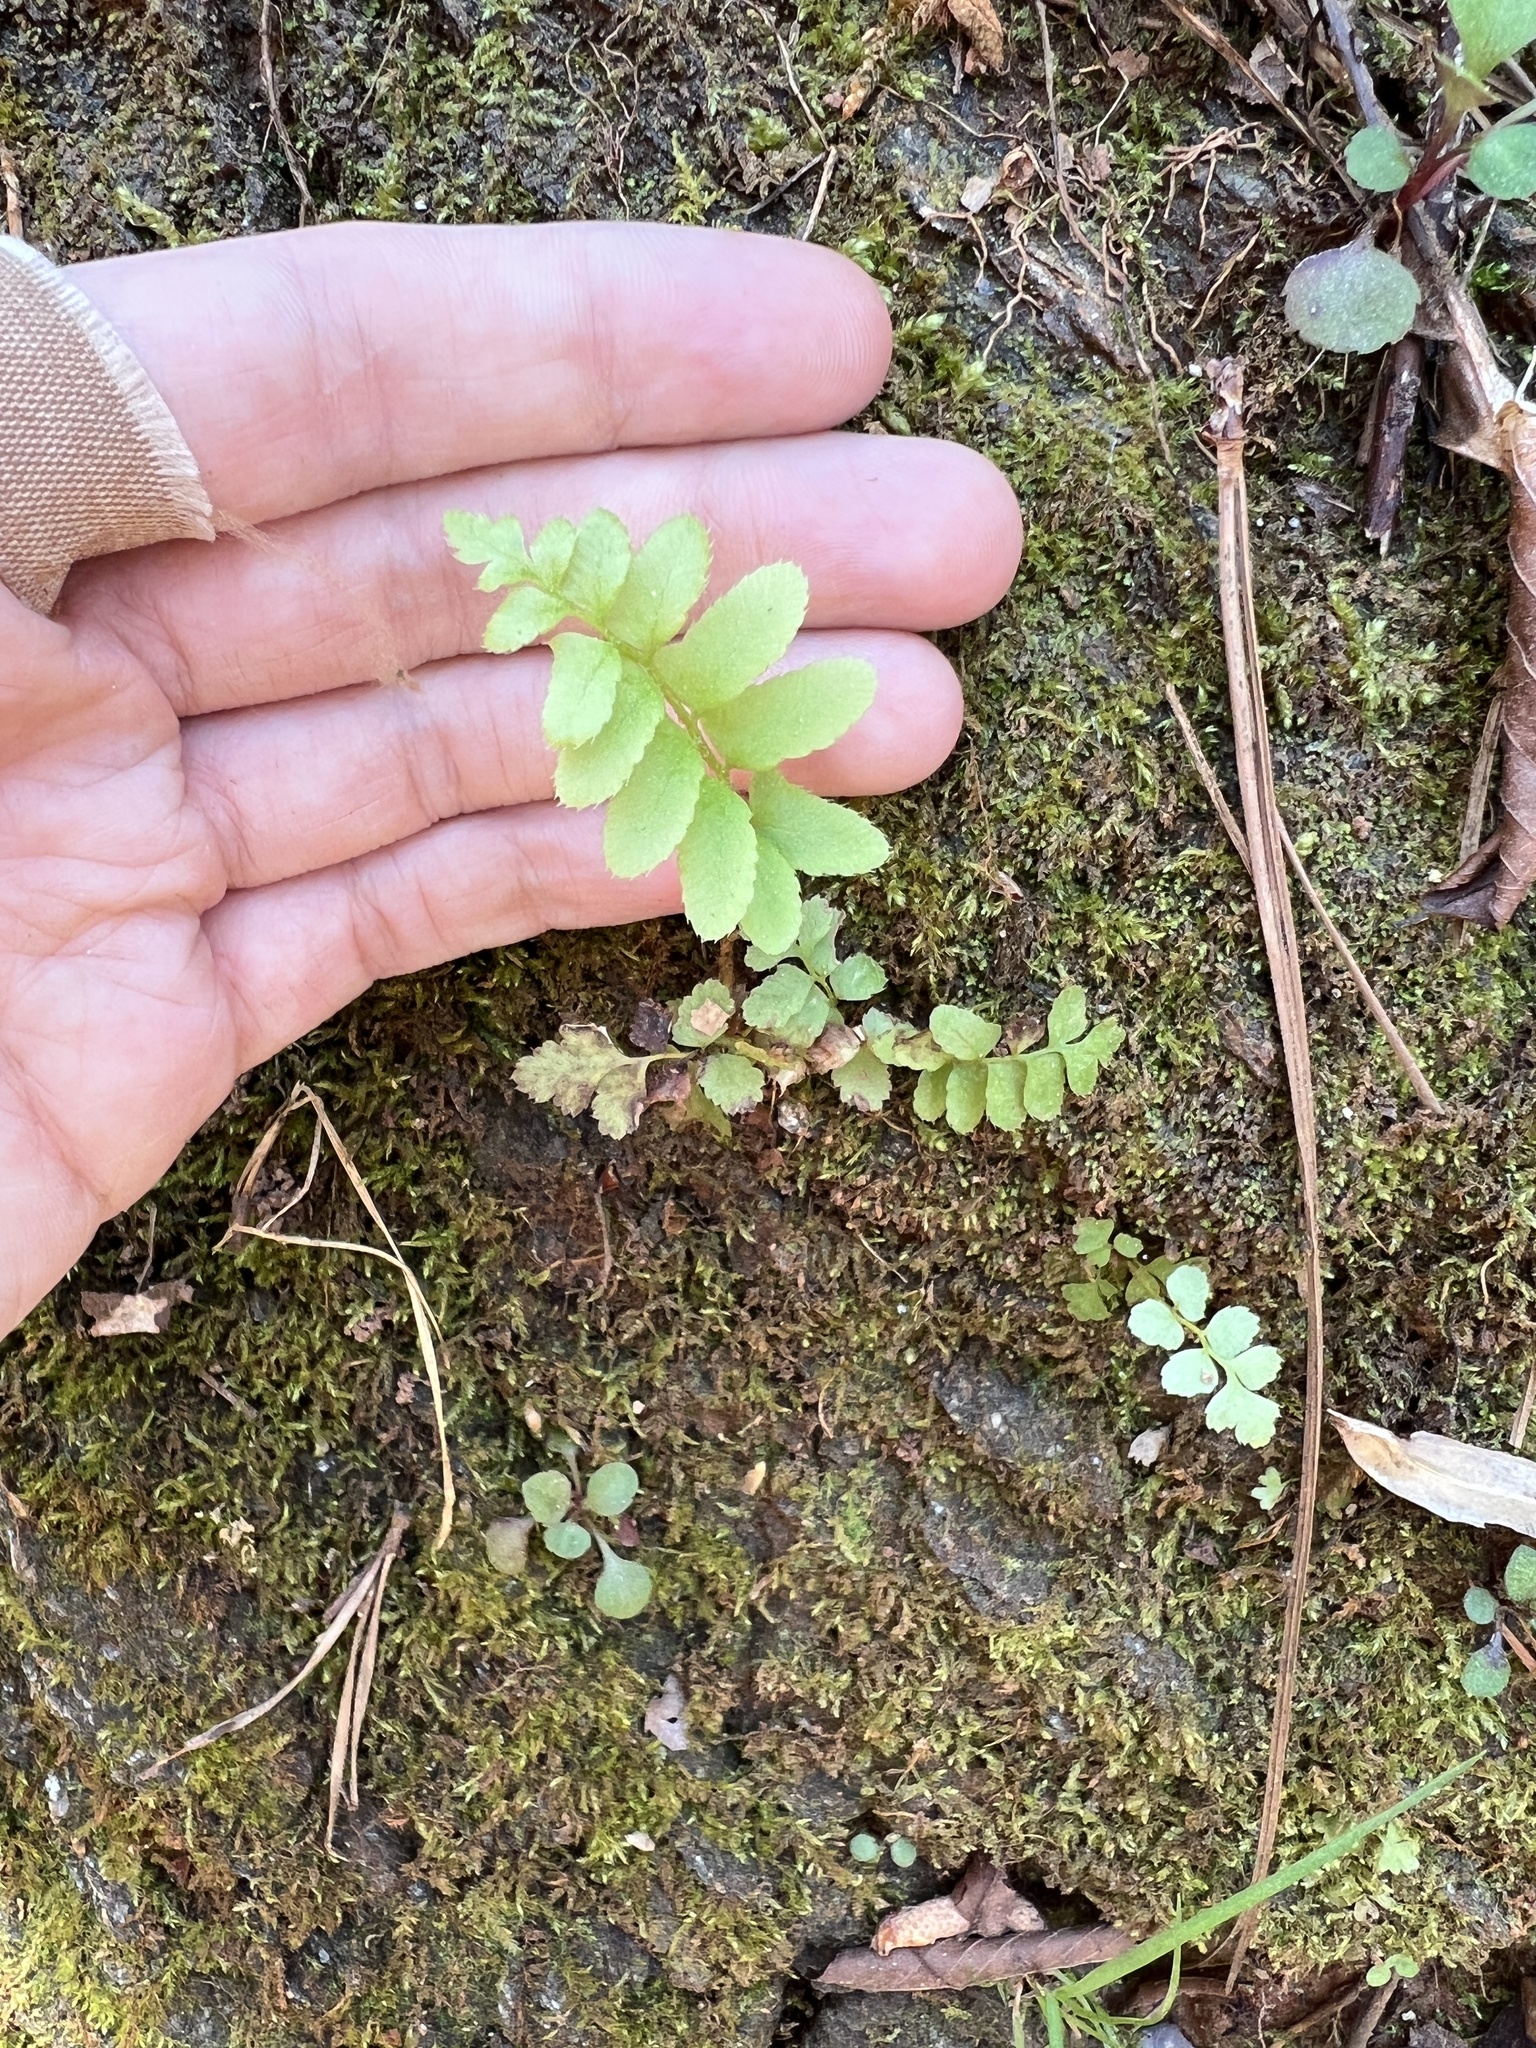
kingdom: Plantae
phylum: Tracheophyta
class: Polypodiopsida
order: Polypodiales
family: Dryopteridaceae
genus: Polystichum
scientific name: Polystichum acrostichoides
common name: Christmas fern
